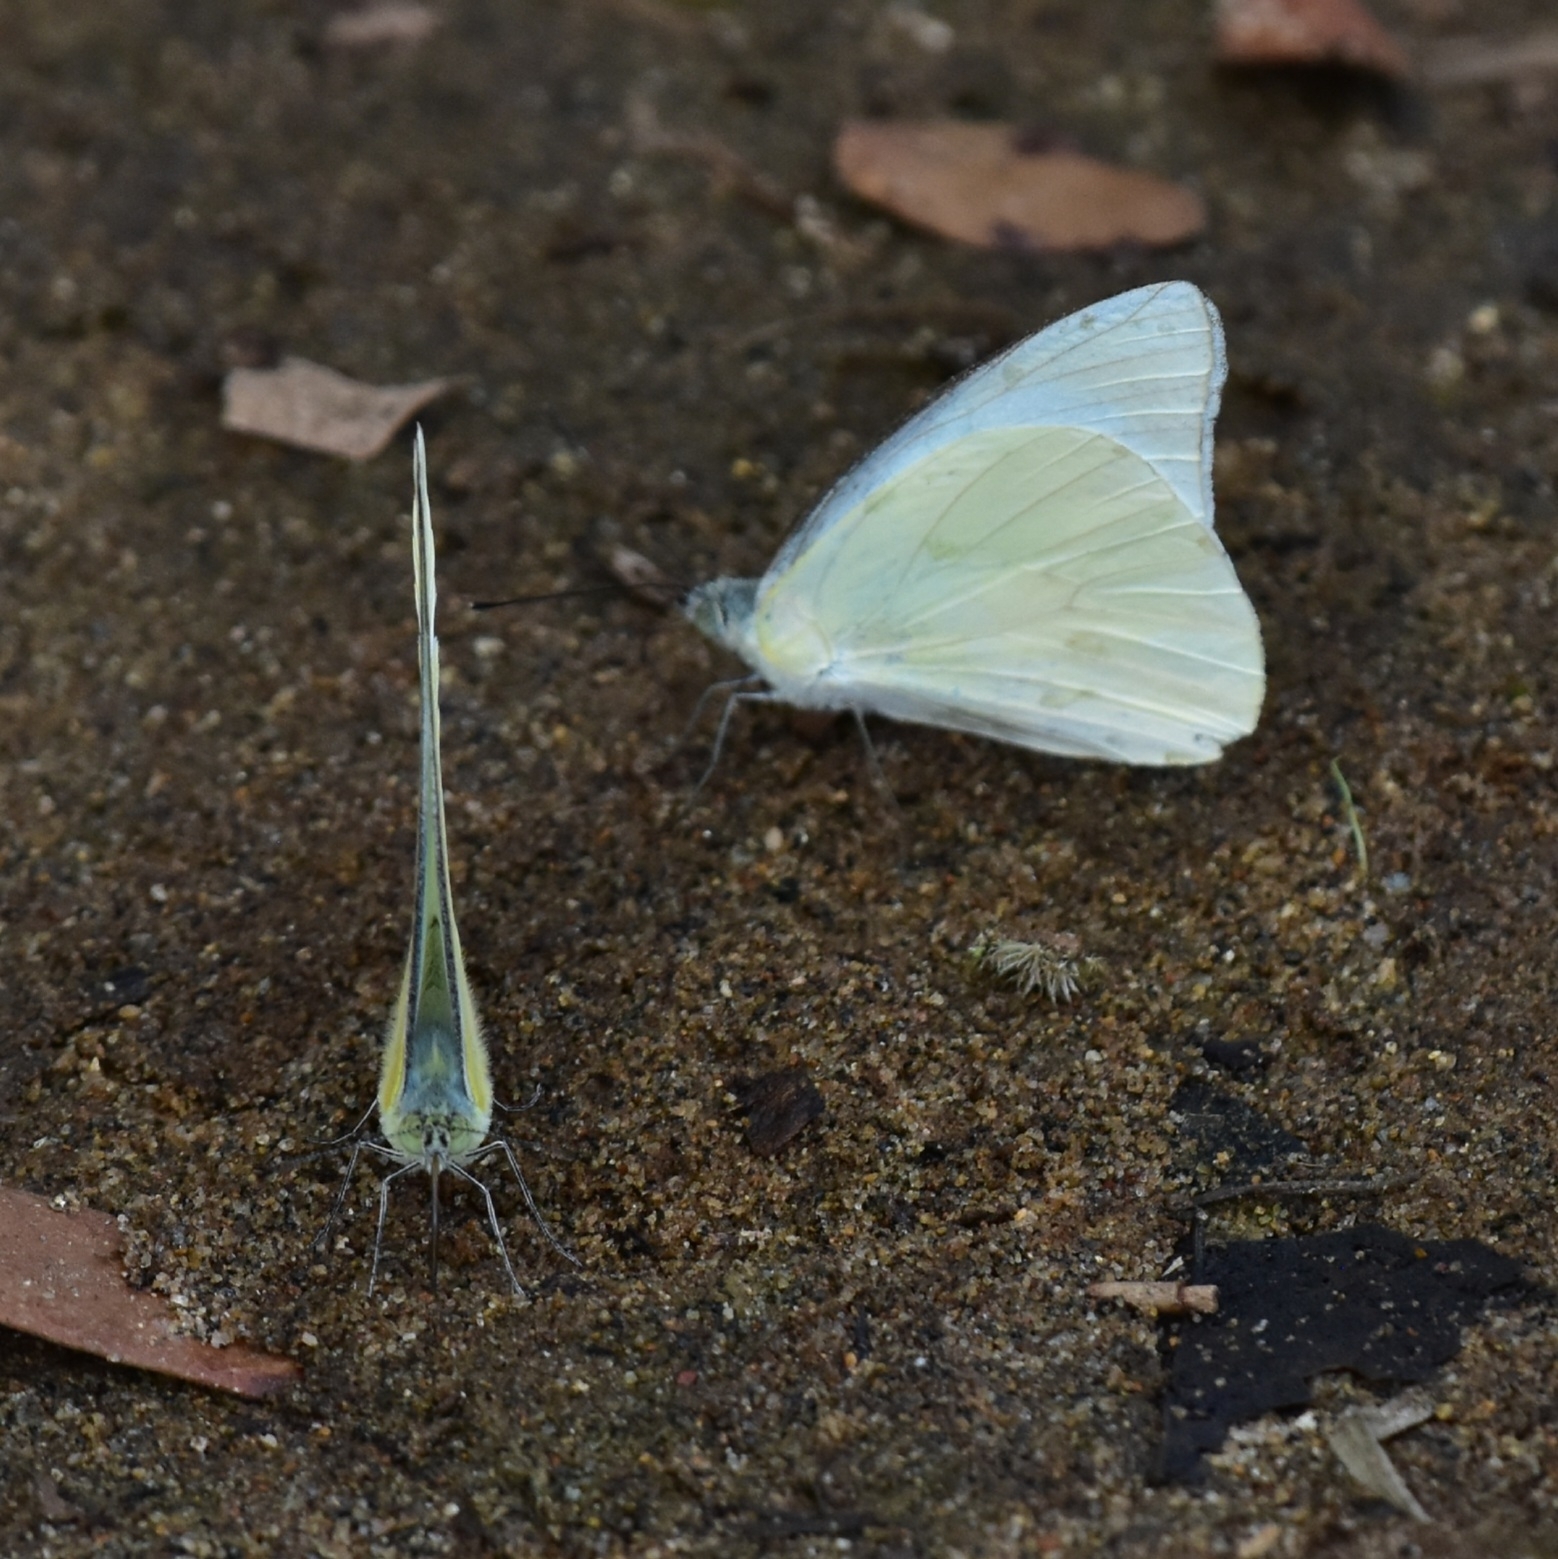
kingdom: Animalia
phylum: Arthropoda
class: Insecta
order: Lepidoptera
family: Pieridae
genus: Appias
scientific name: Appias albina
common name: Common albatross
